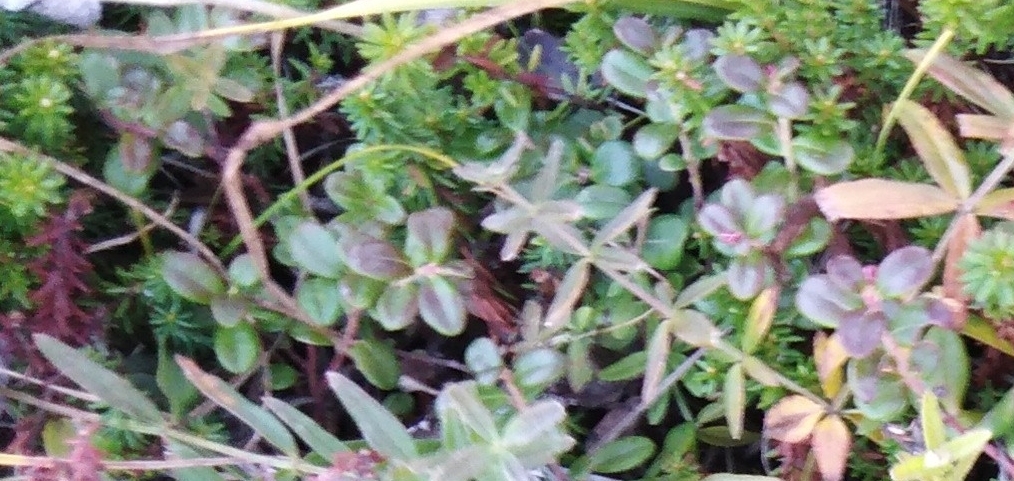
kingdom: Plantae
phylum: Tracheophyta
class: Magnoliopsida
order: Ericales
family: Ericaceae
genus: Vaccinium
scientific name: Vaccinium vitis-idaea
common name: Cowberry
